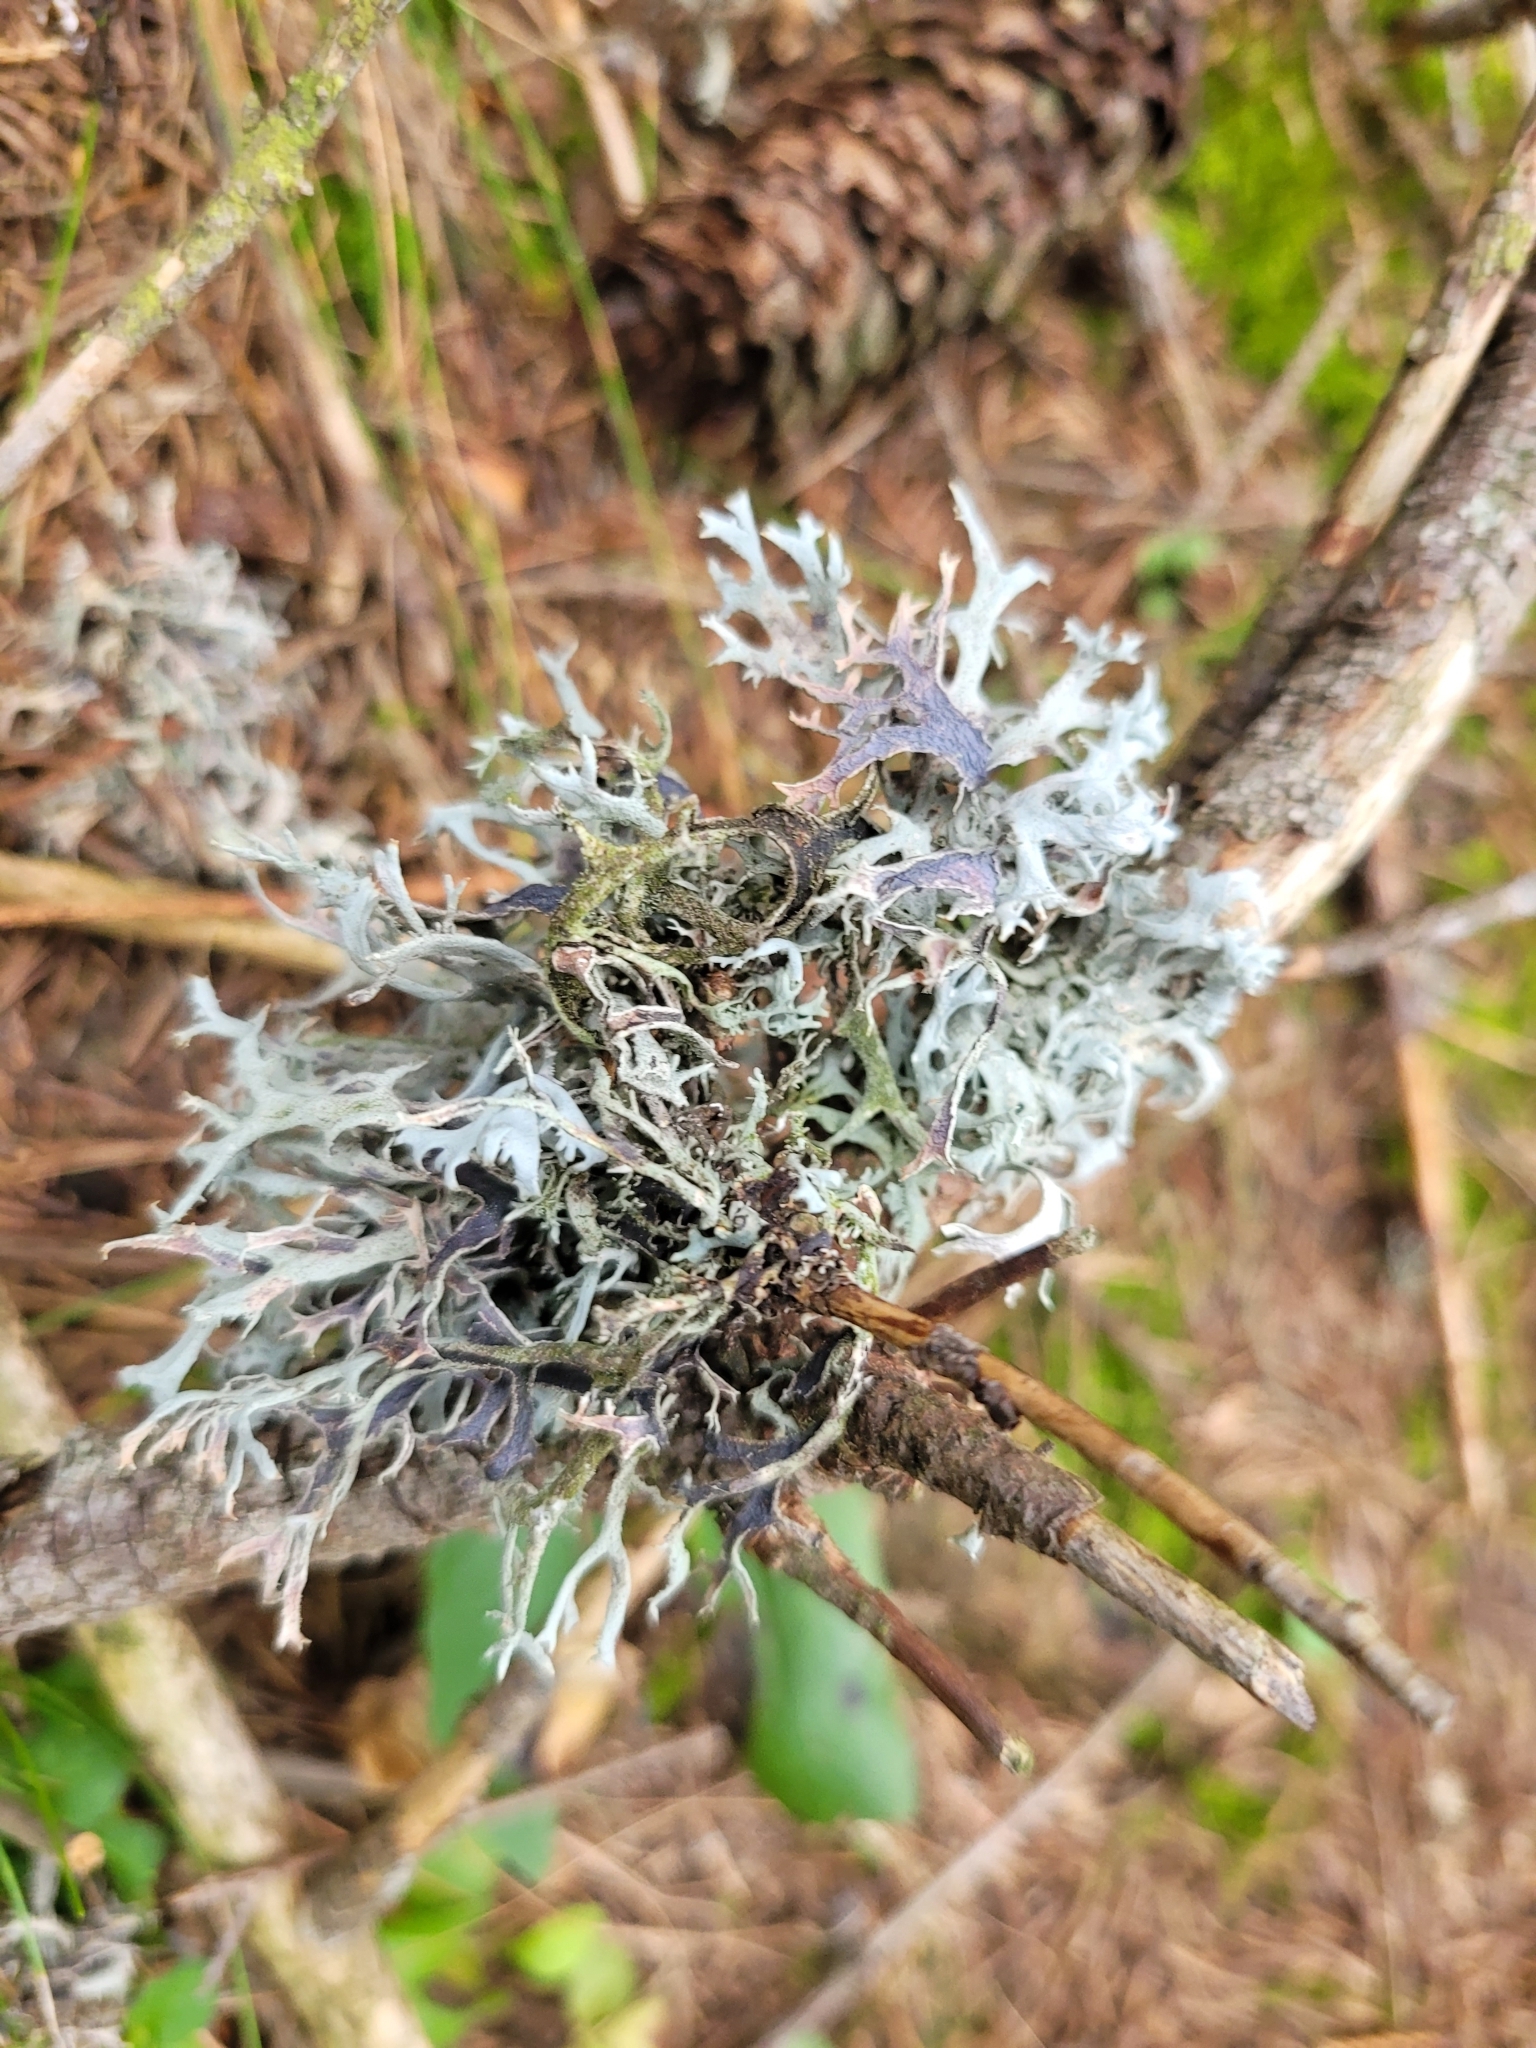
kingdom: Fungi
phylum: Ascomycota
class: Lecanoromycetes
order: Lecanorales
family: Parmeliaceae
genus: Pseudevernia
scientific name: Pseudevernia furfuracea
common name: Tree moss
